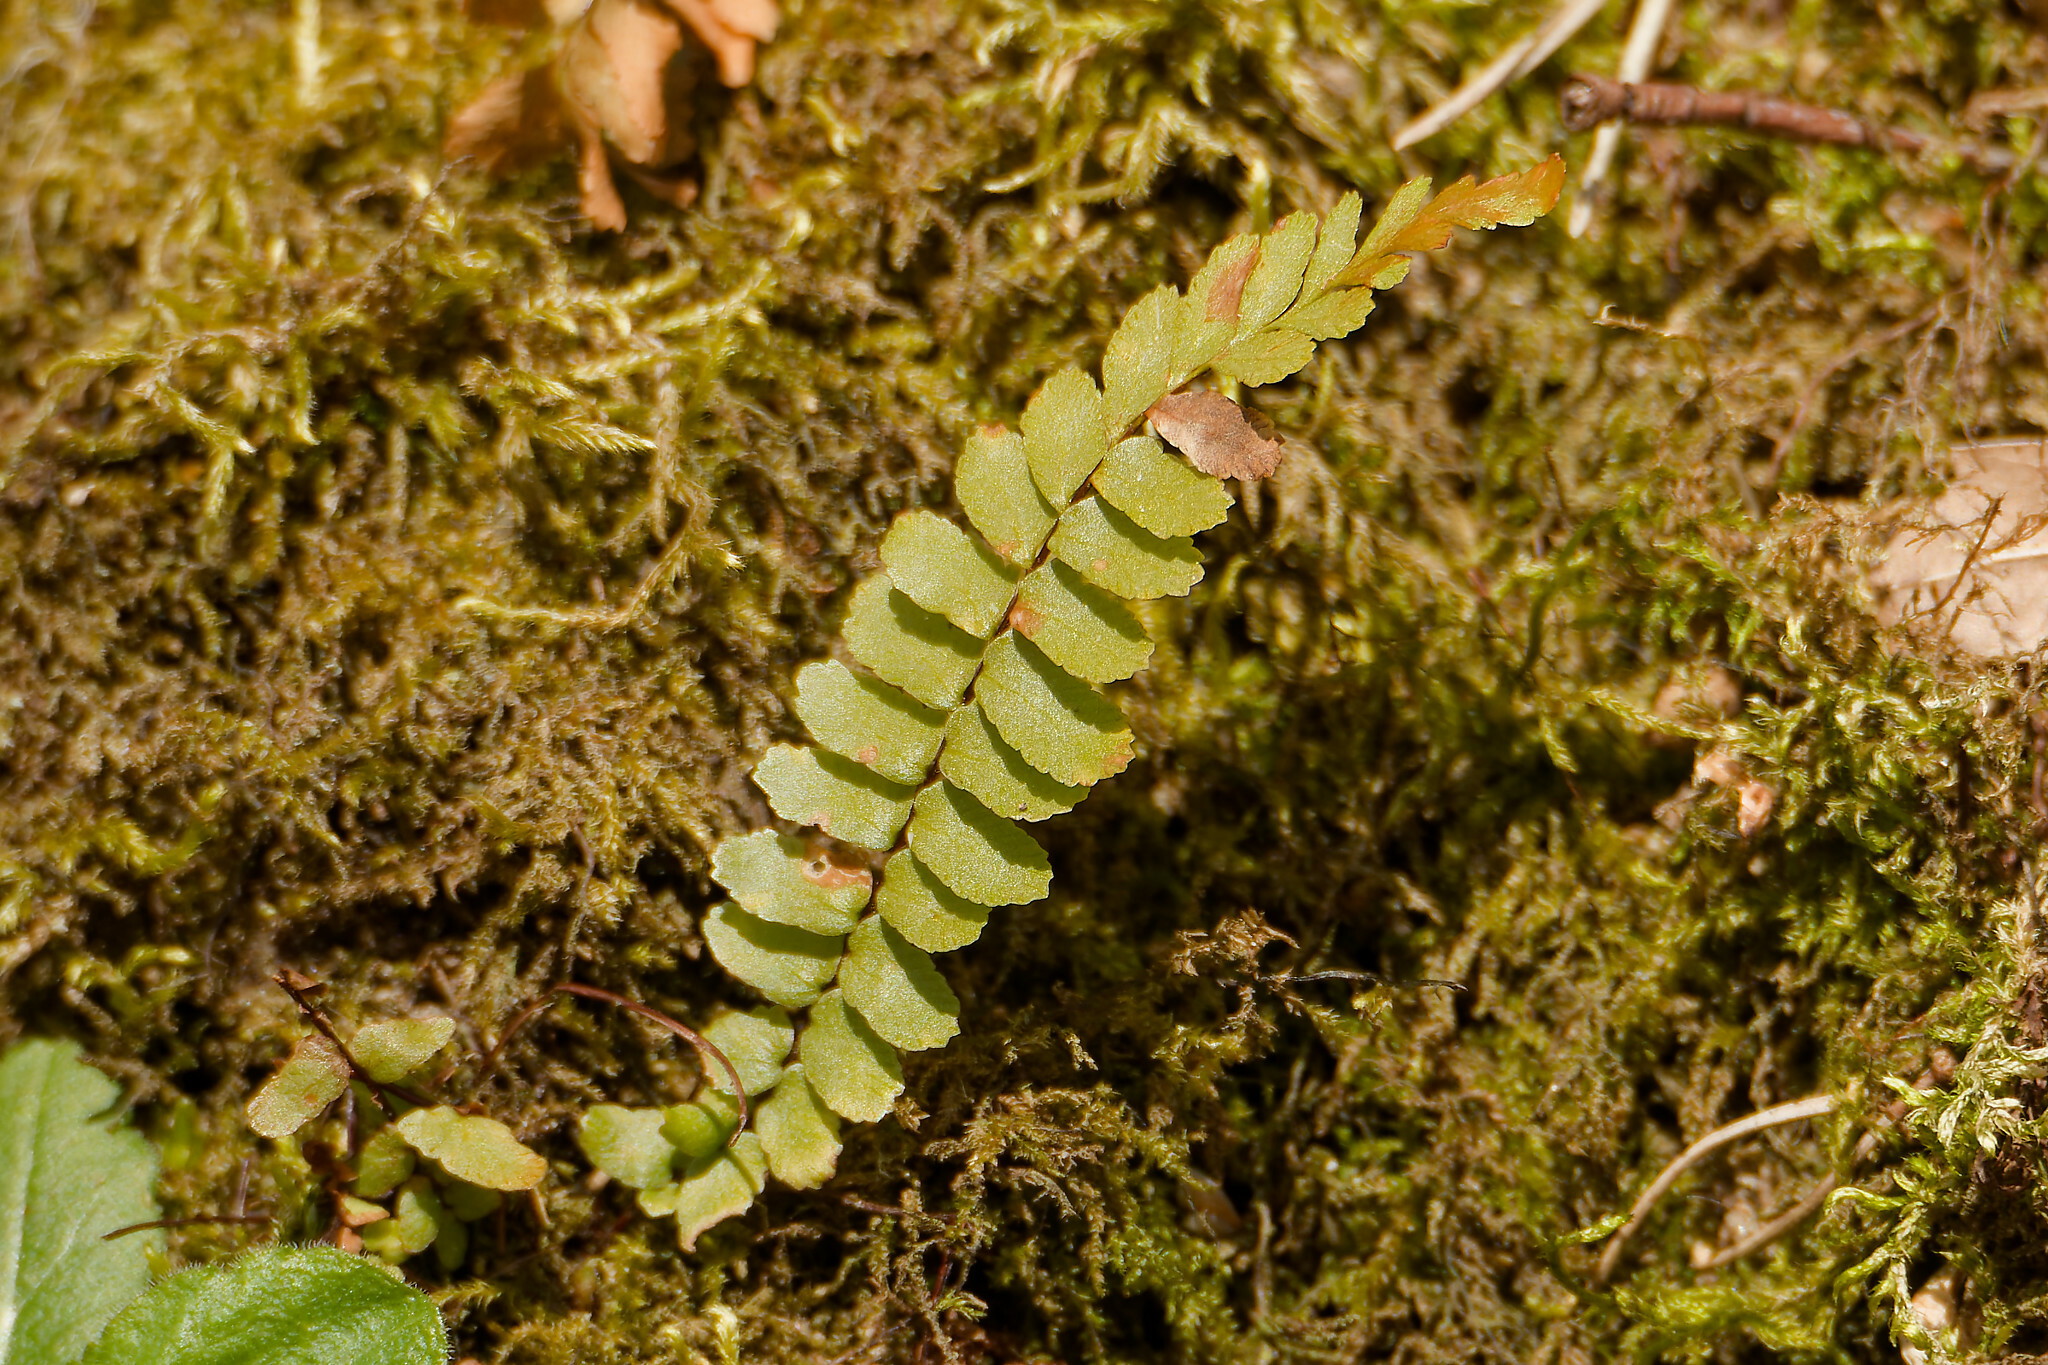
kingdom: Plantae
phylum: Tracheophyta
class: Polypodiopsida
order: Polypodiales
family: Aspleniaceae
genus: Asplenium
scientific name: Asplenium platyneuron
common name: Ebony spleenwort
